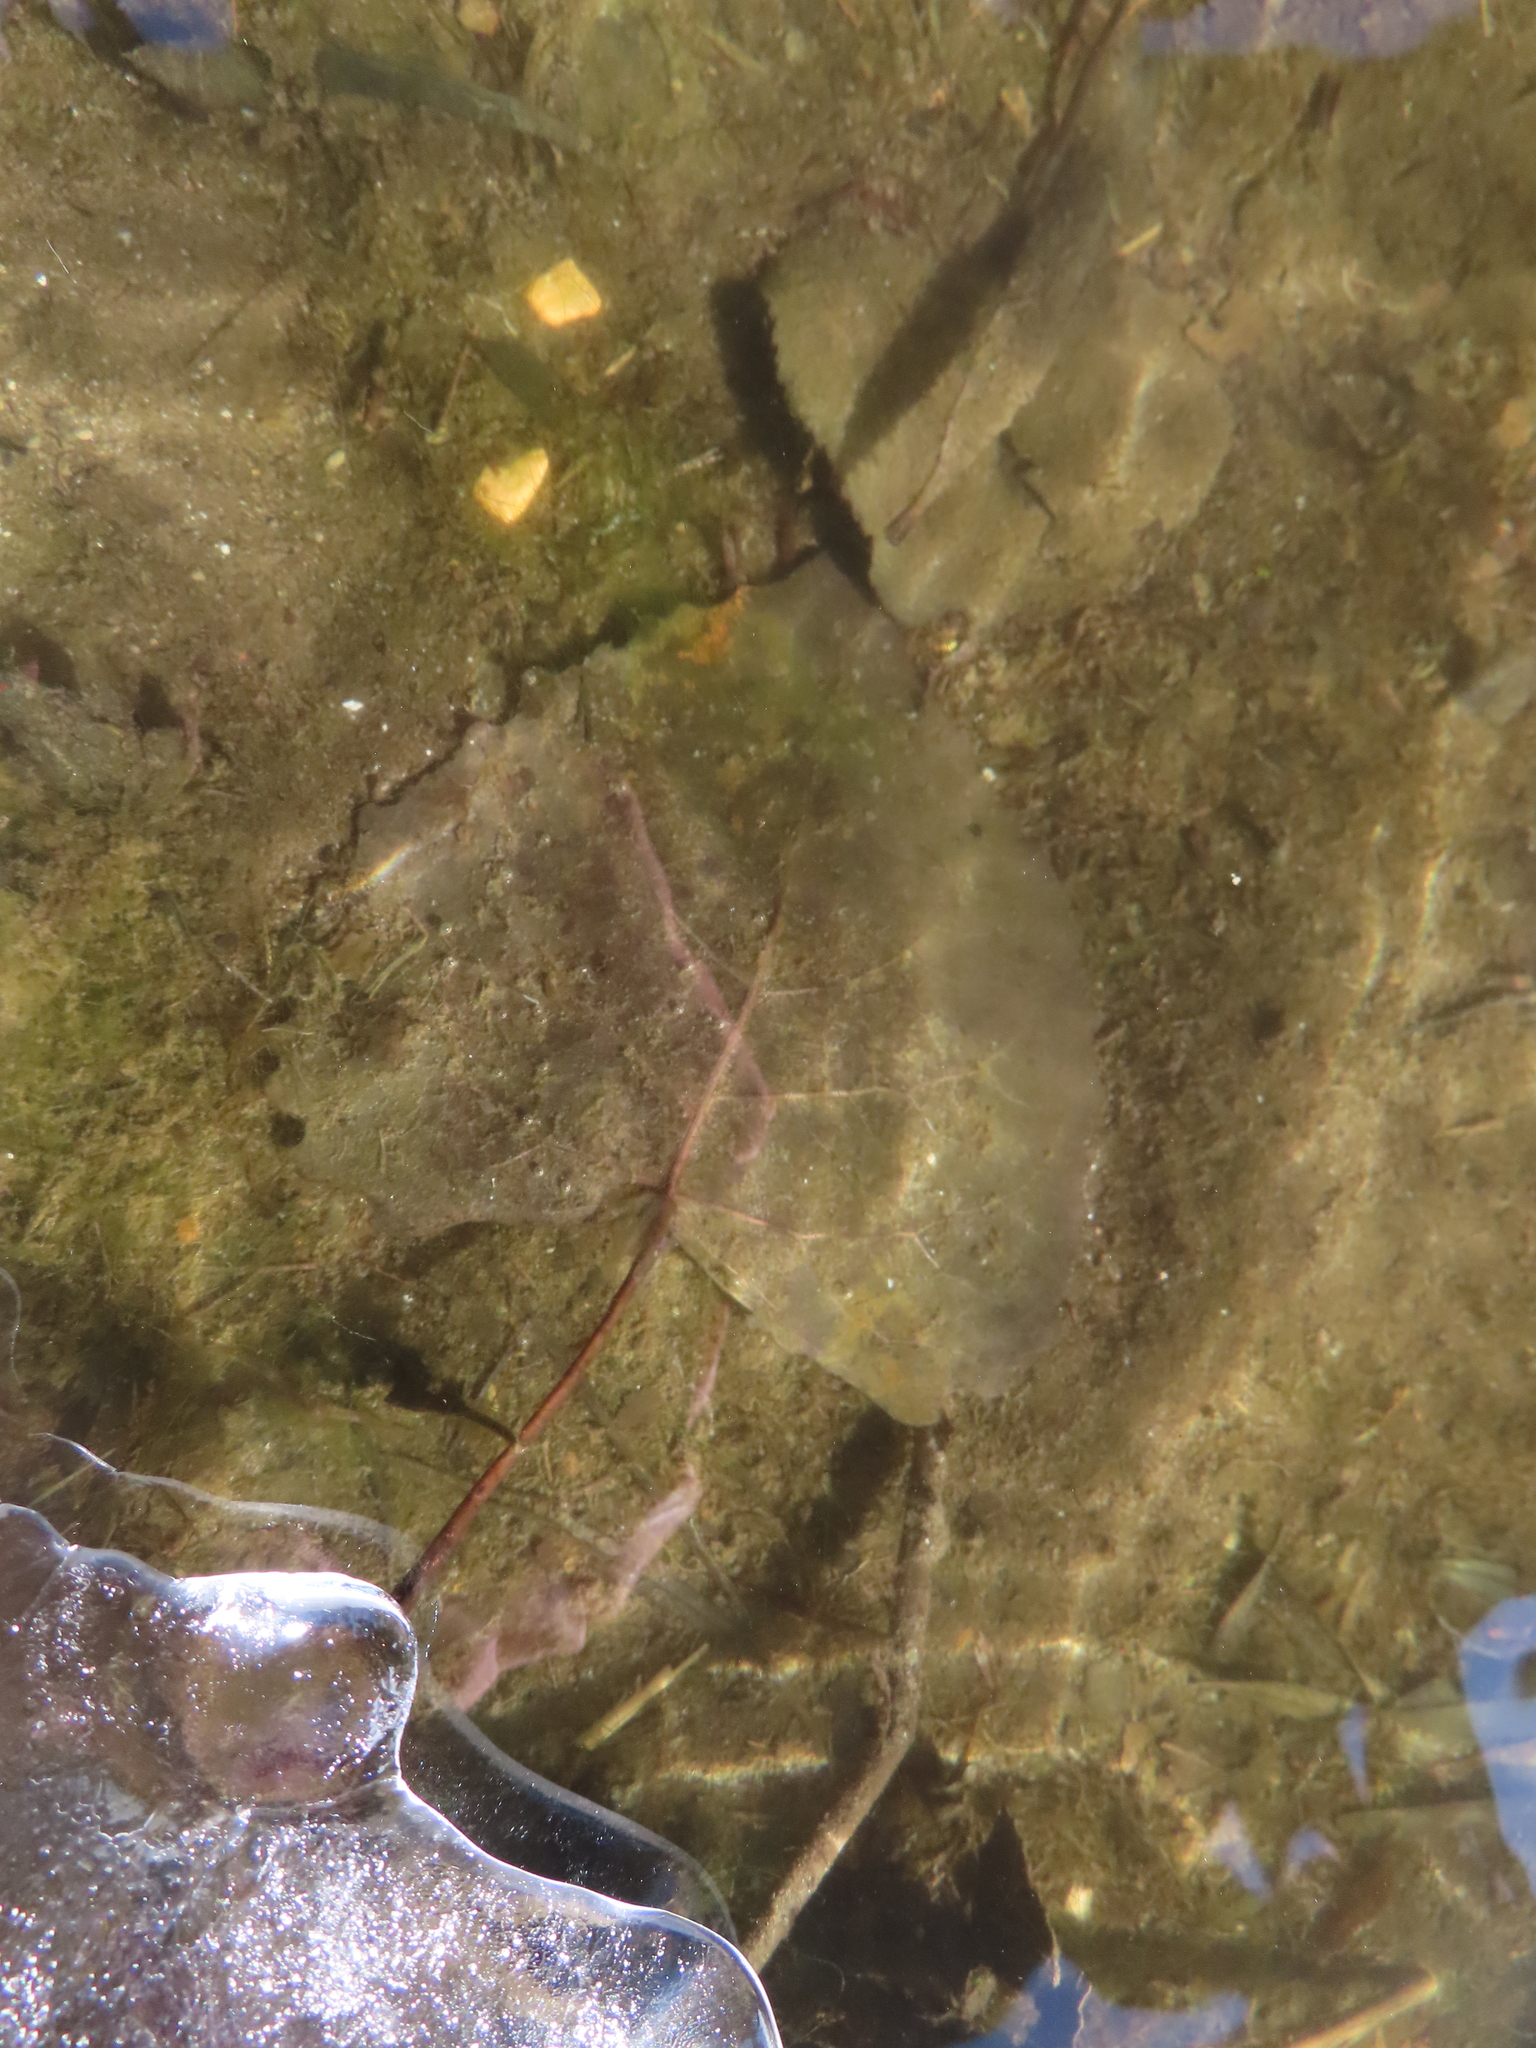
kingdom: Plantae
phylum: Tracheophyta
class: Magnoliopsida
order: Malpighiales
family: Salicaceae
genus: Populus
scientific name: Populus deltoides
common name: Eastern cottonwood
